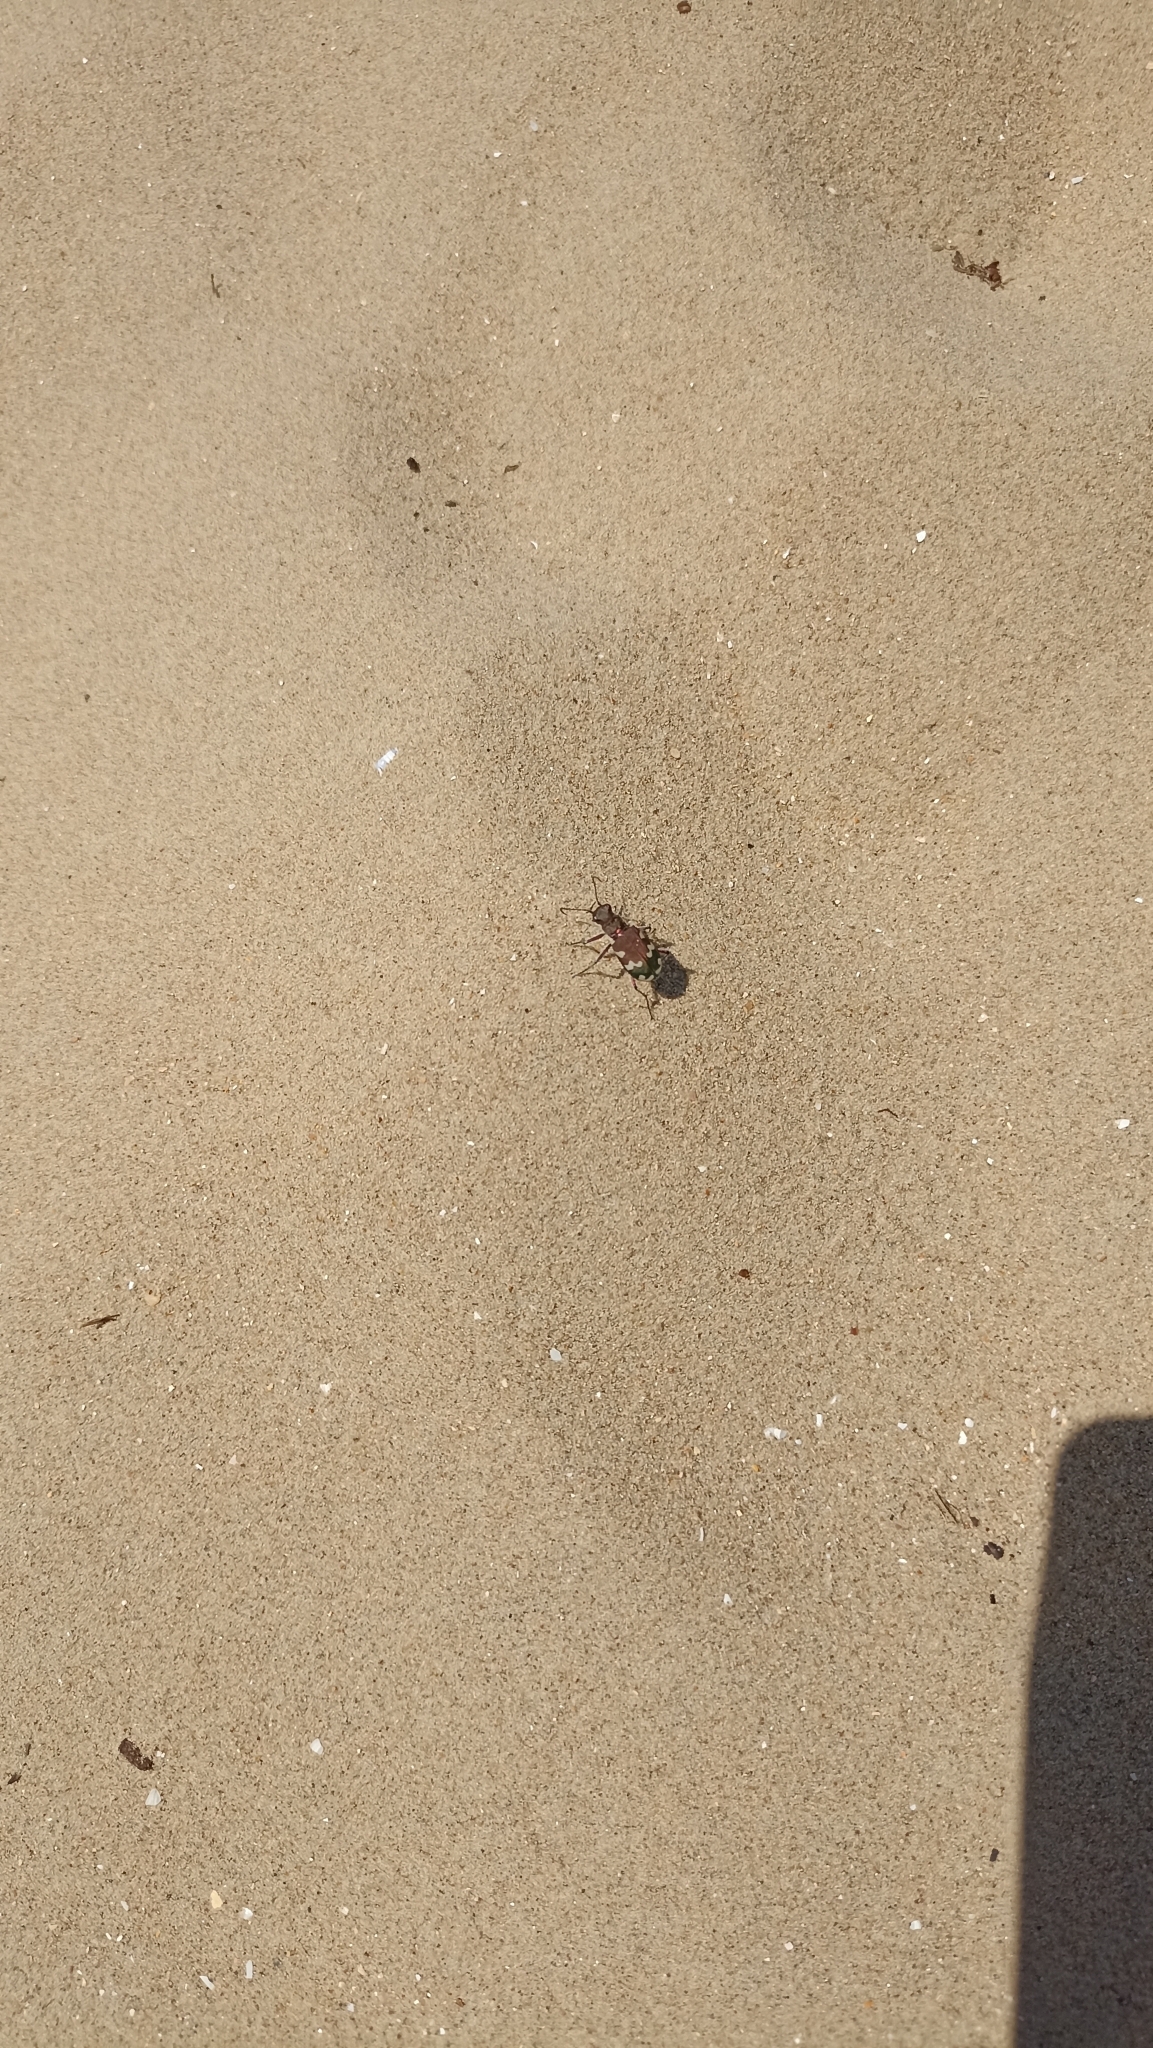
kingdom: Animalia
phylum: Arthropoda
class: Insecta
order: Coleoptera
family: Carabidae
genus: Cicindela
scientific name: Cicindela hybrida
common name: Northern dune tiger beetle
